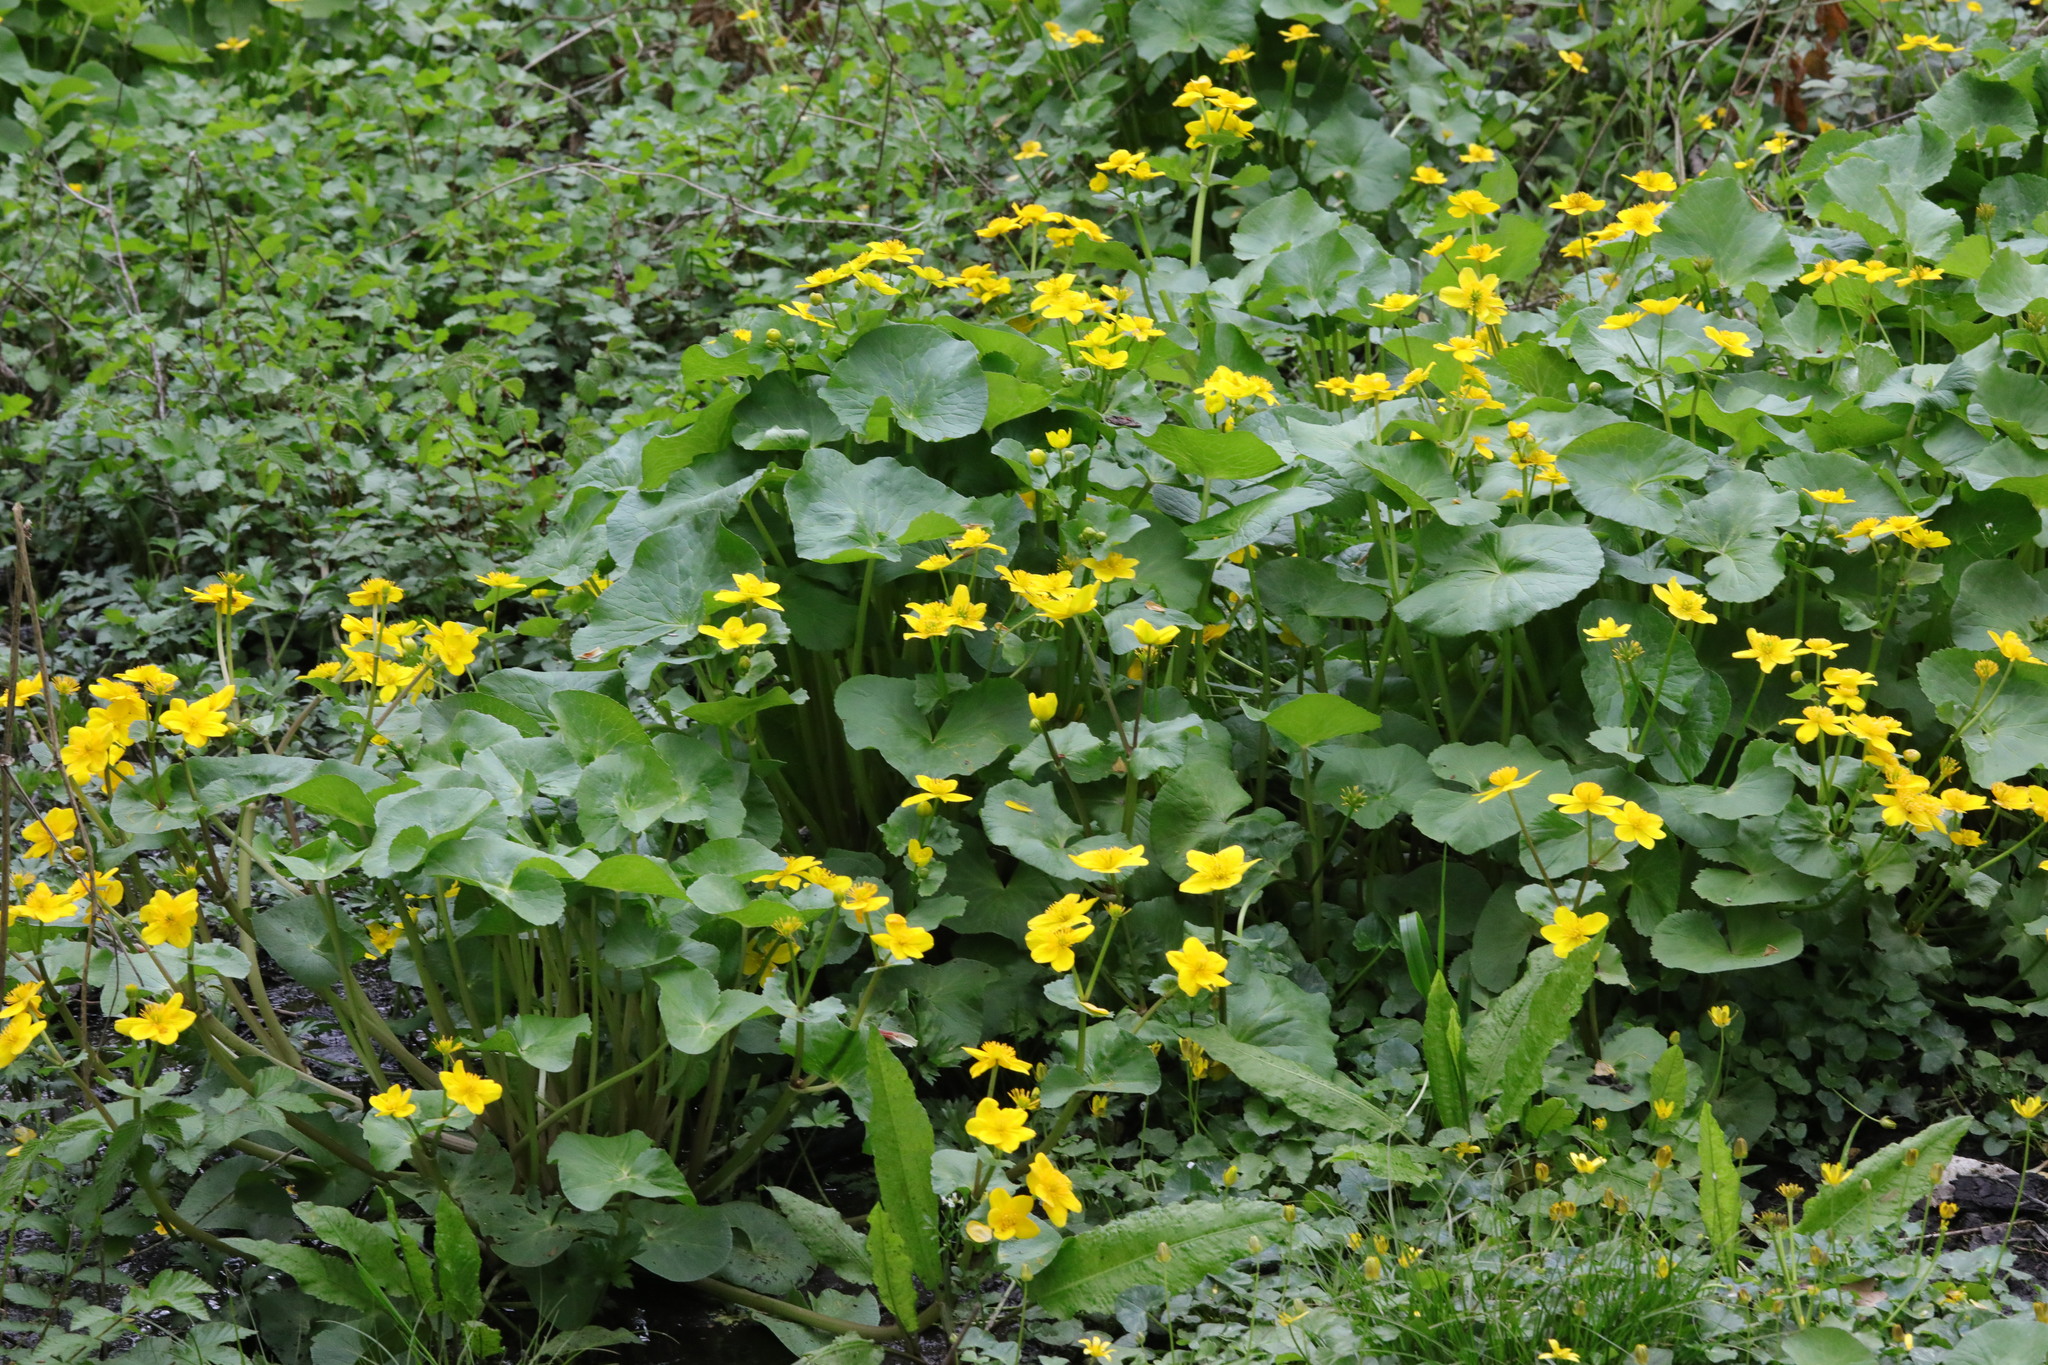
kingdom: Plantae
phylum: Tracheophyta
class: Magnoliopsida
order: Ranunculales
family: Ranunculaceae
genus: Caltha
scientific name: Caltha palustris
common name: Marsh marigold
